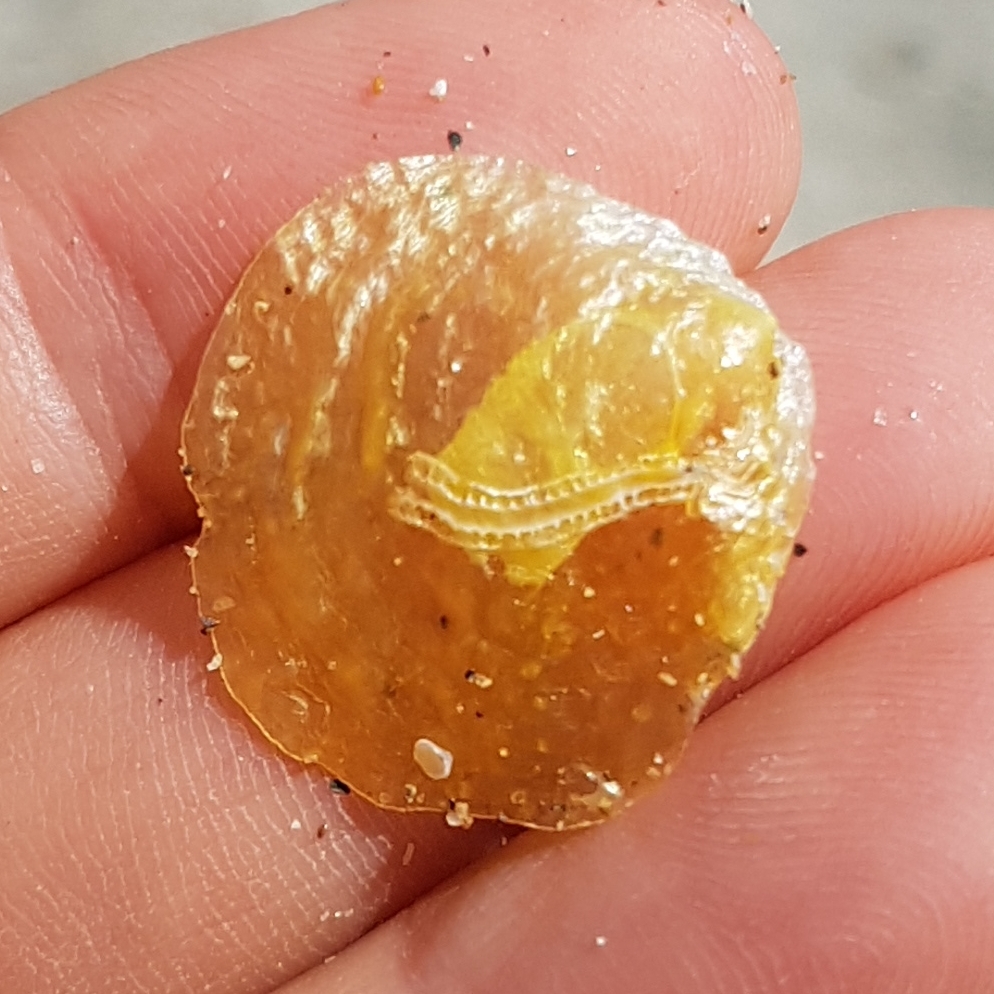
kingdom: Animalia
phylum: Mollusca
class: Bivalvia
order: Pectinida
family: Anomiidae
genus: Anomia
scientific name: Anomia ephippium
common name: Saddle oyster
